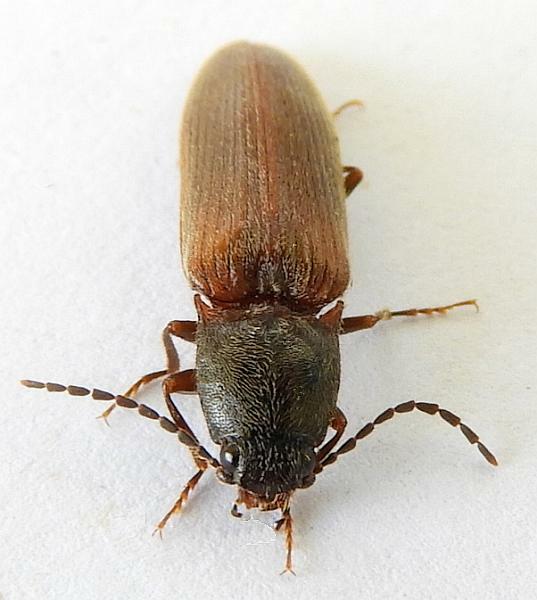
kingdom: Animalia
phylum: Arthropoda
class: Insecta
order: Coleoptera
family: Elateridae
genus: Hemicrepidius
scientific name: Hemicrepidius soccifer
